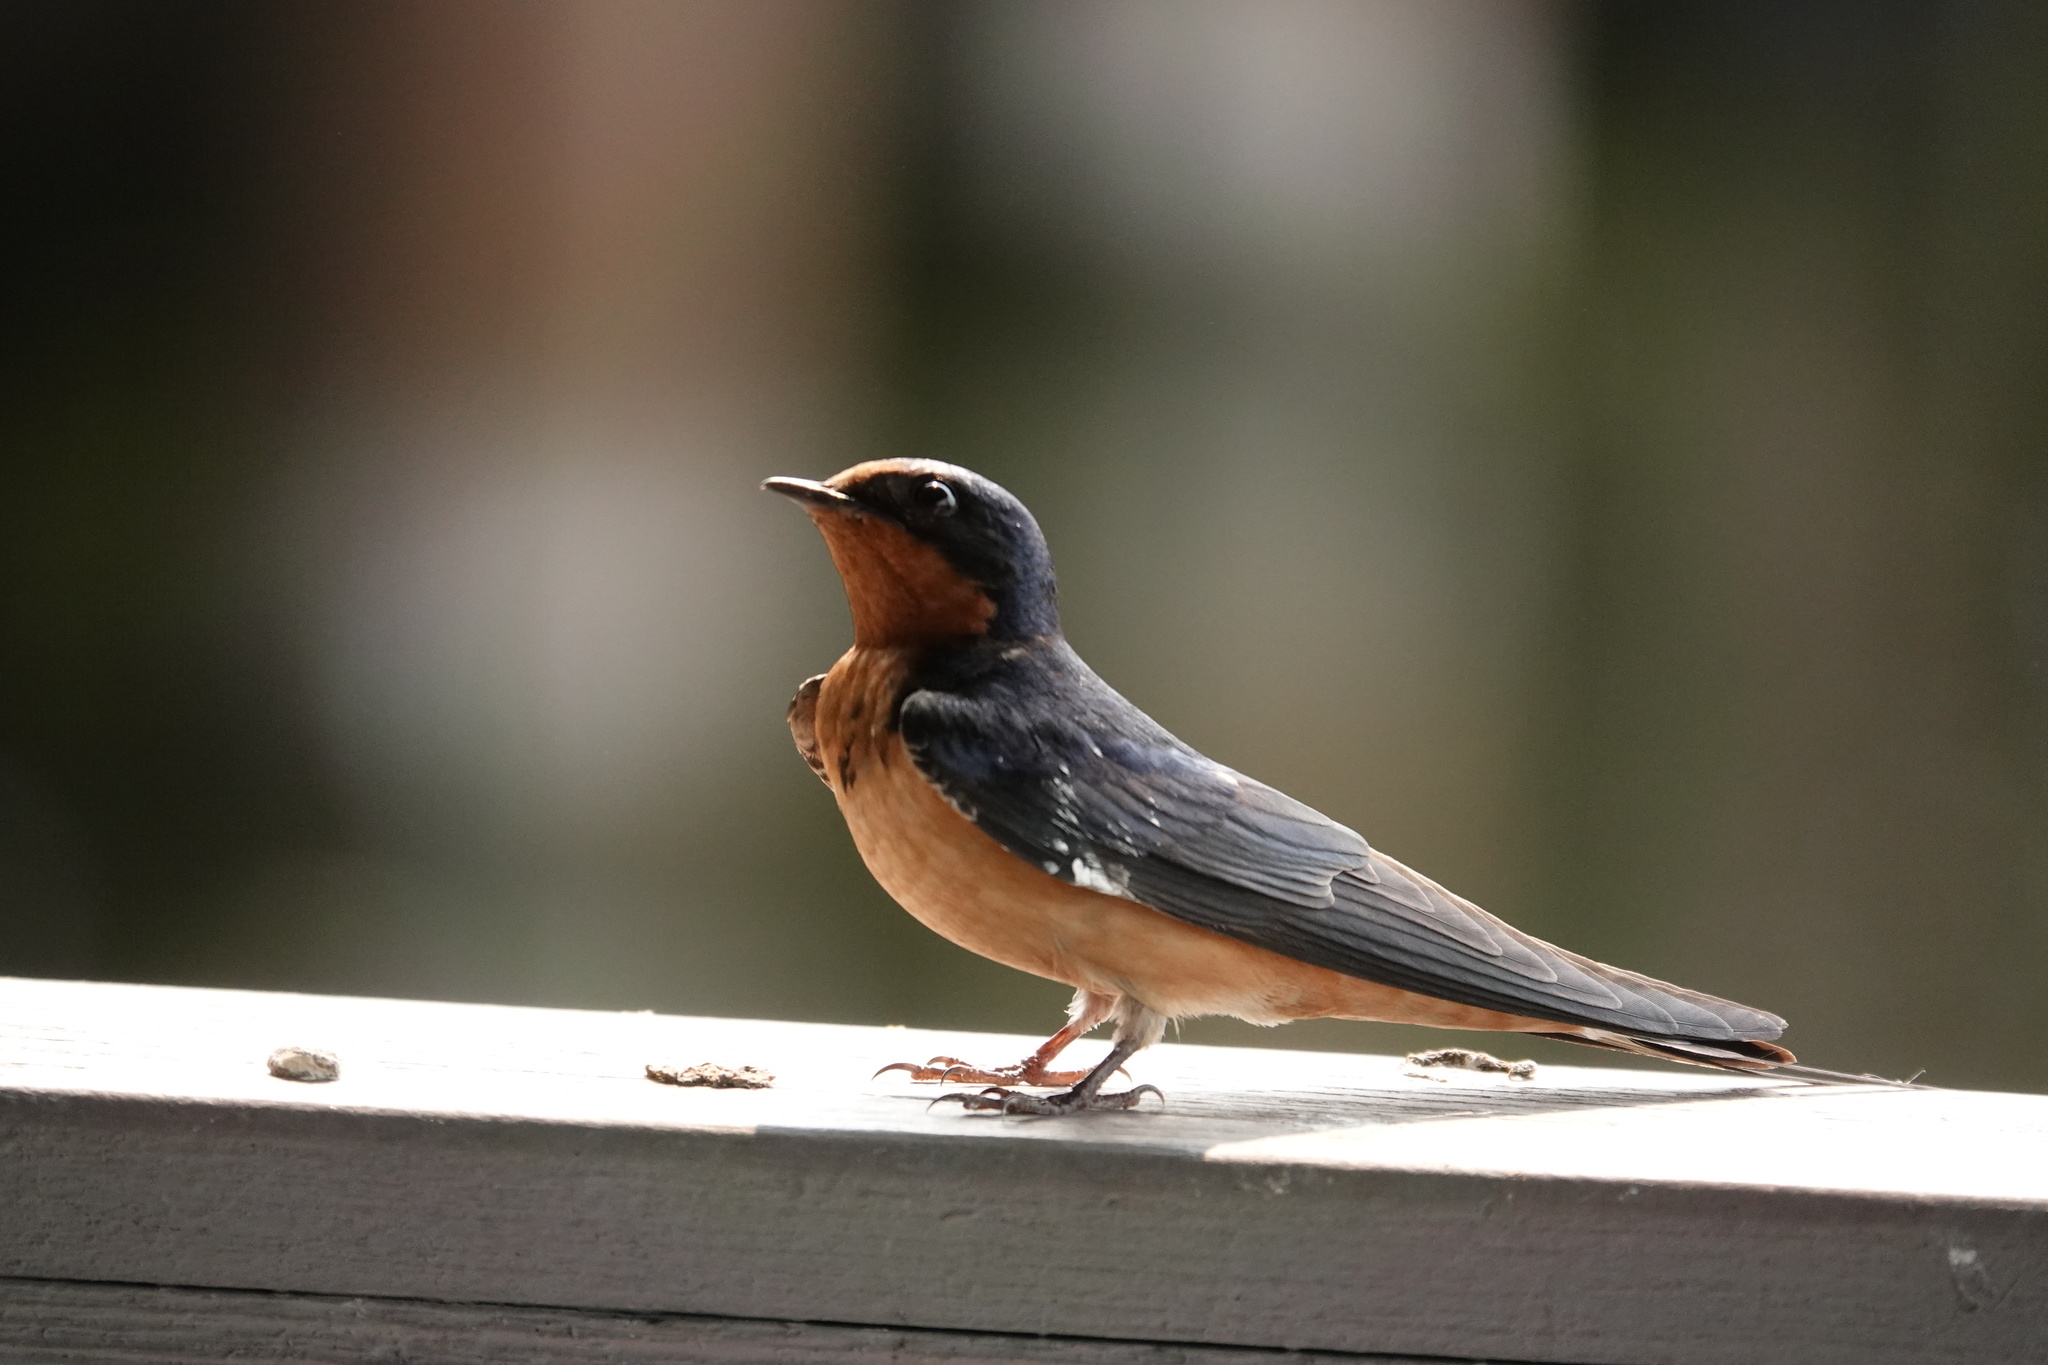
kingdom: Animalia
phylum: Chordata
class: Aves
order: Passeriformes
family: Hirundinidae
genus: Hirundo
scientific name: Hirundo rustica
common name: Barn swallow
